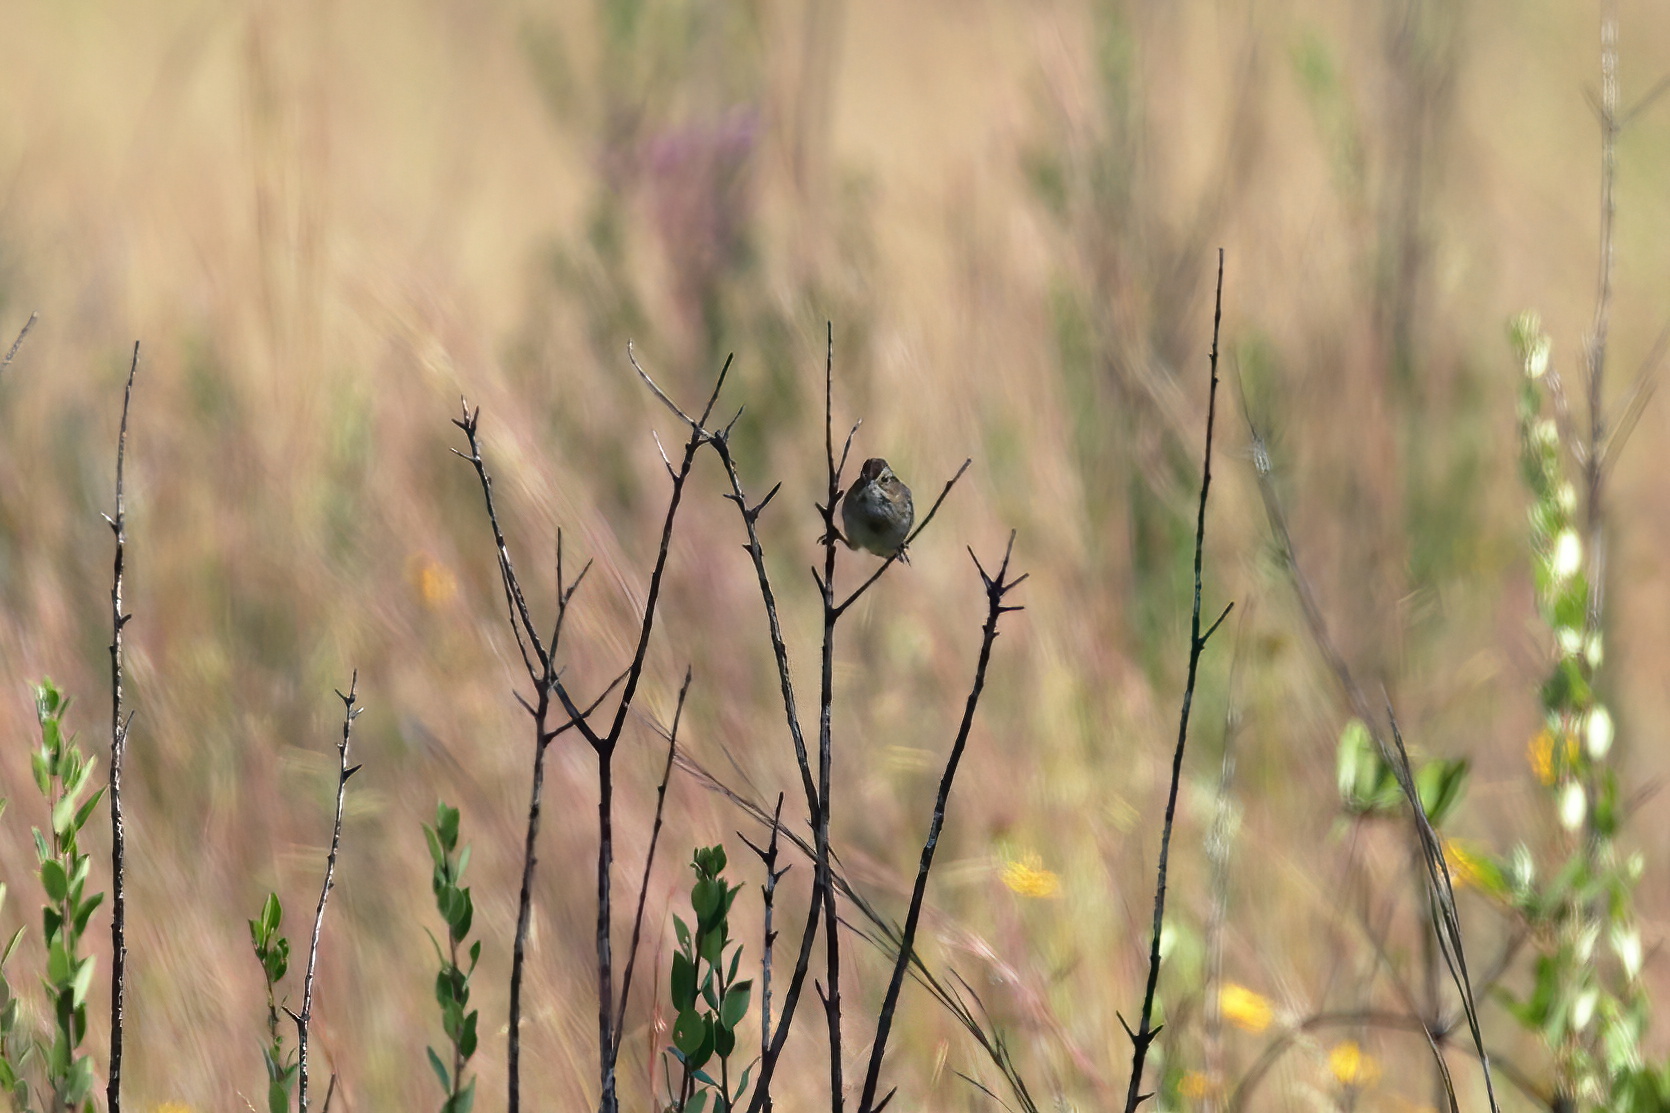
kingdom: Animalia
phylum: Chordata
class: Aves
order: Passeriformes
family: Passerellidae
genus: Melospiza
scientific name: Melospiza georgiana
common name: Swamp sparrow
